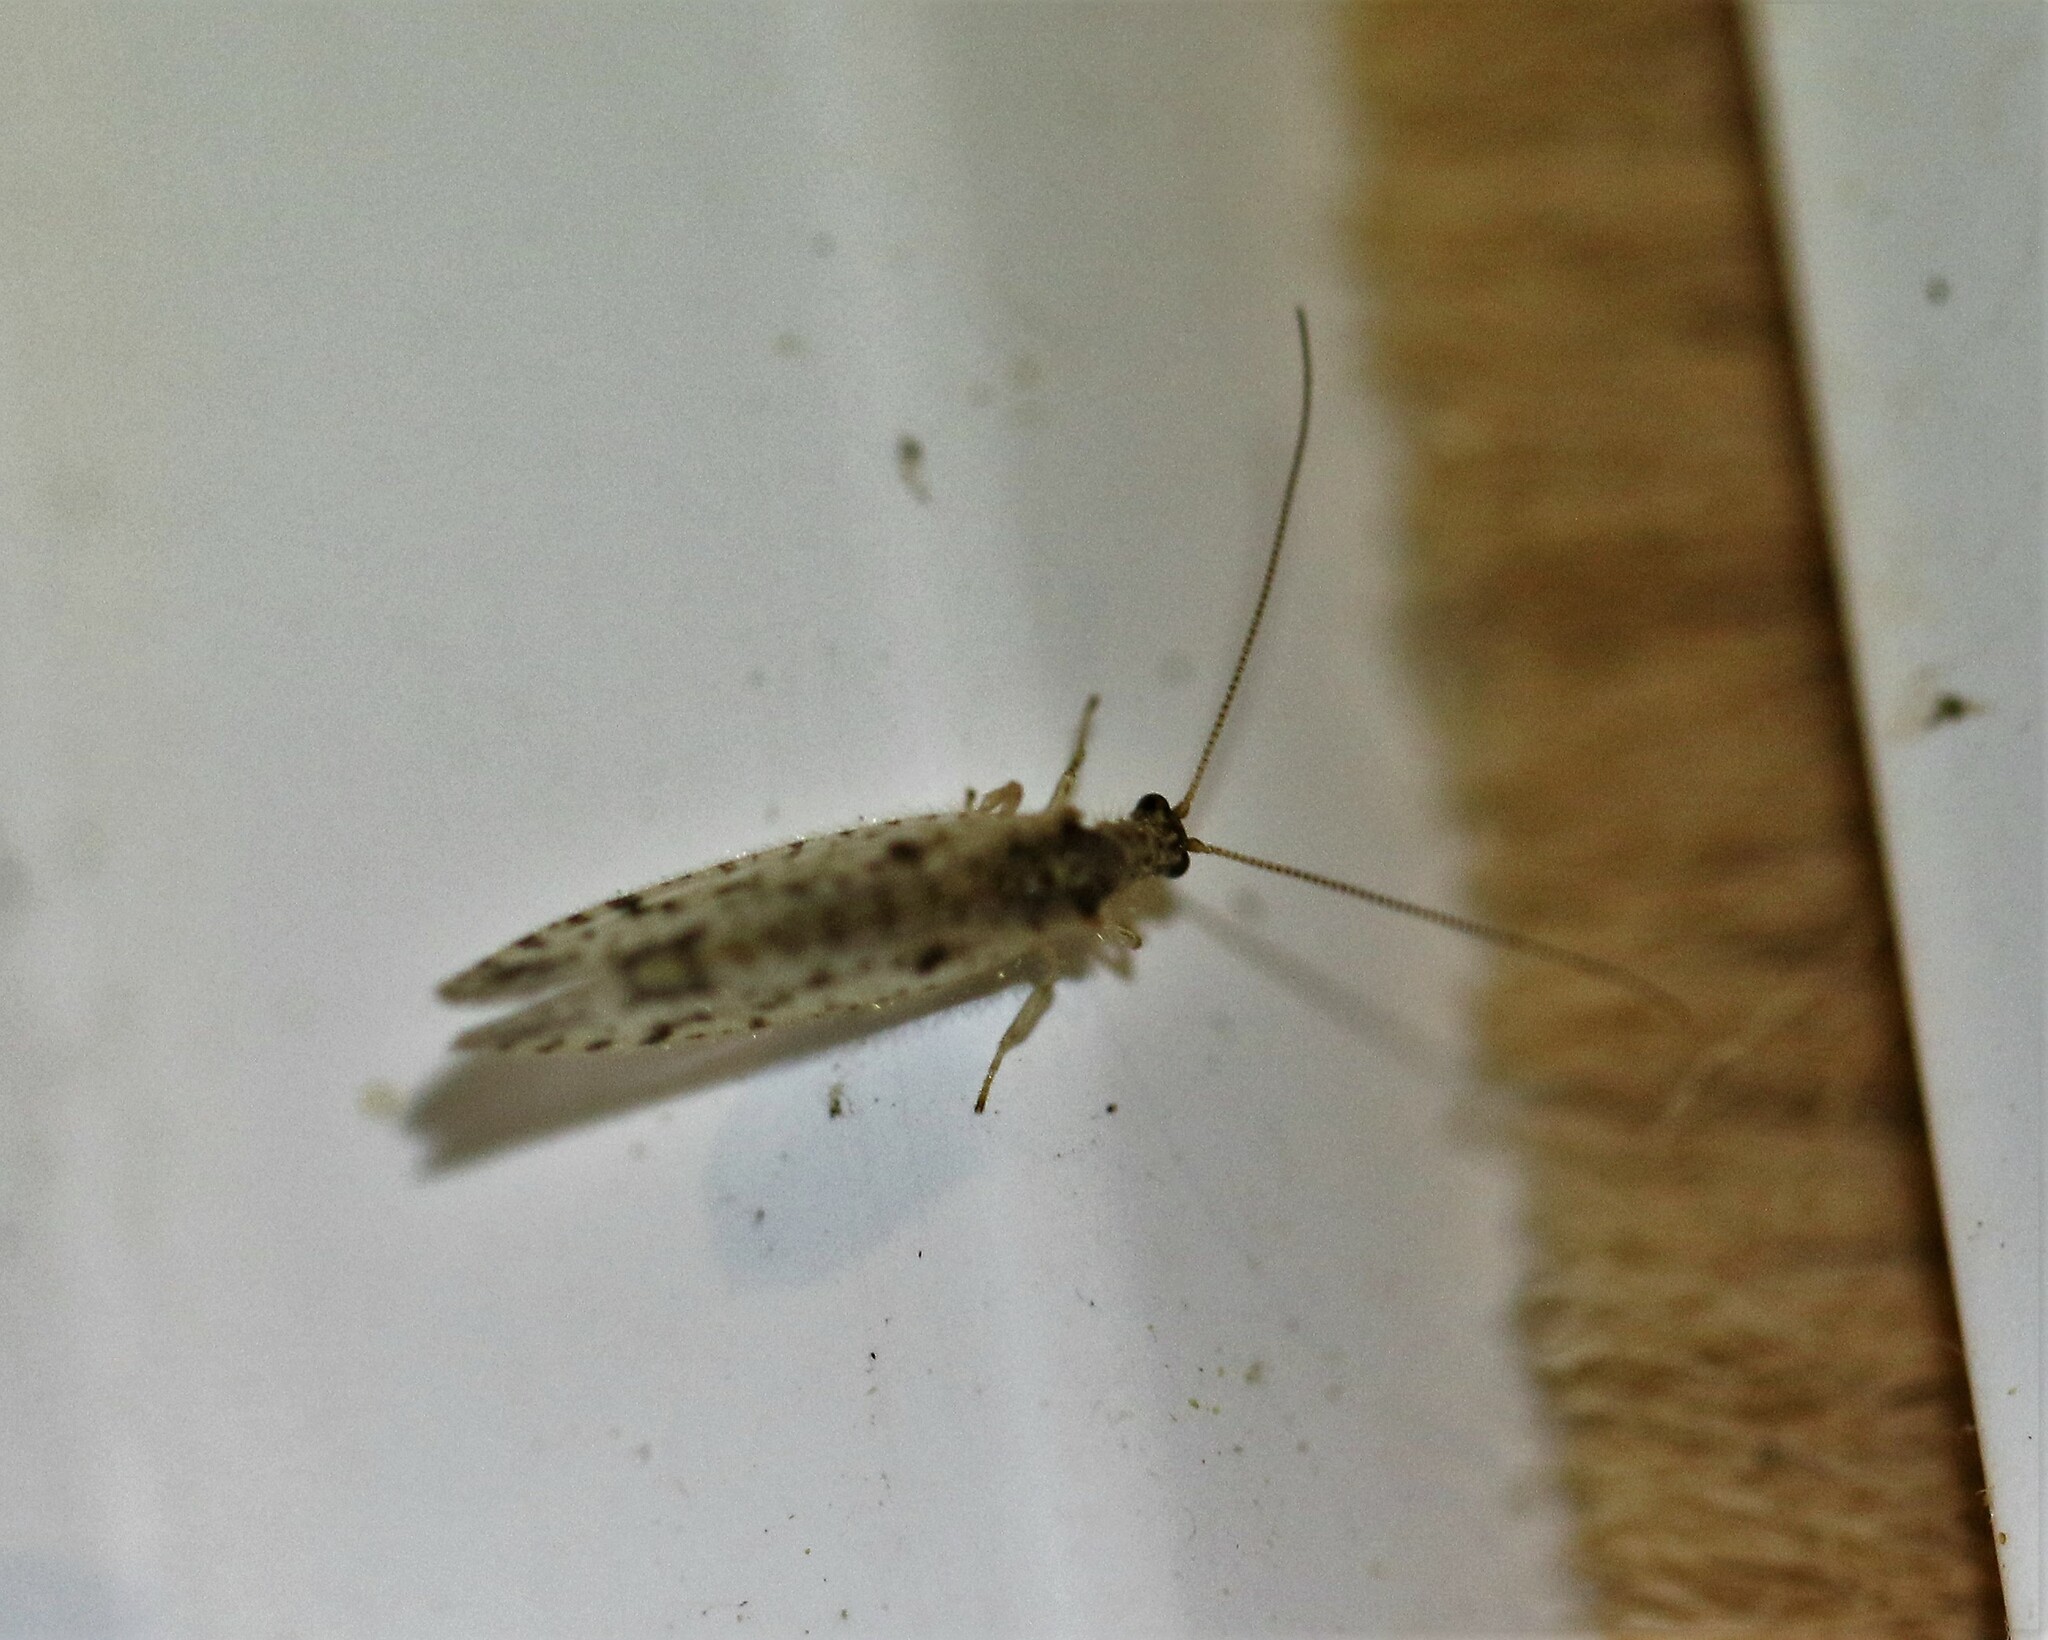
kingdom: Animalia
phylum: Arthropoda
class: Insecta
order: Neuroptera
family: Hemerobiidae
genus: Micromus
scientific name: Micromus variegatus
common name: Brown lacewing
